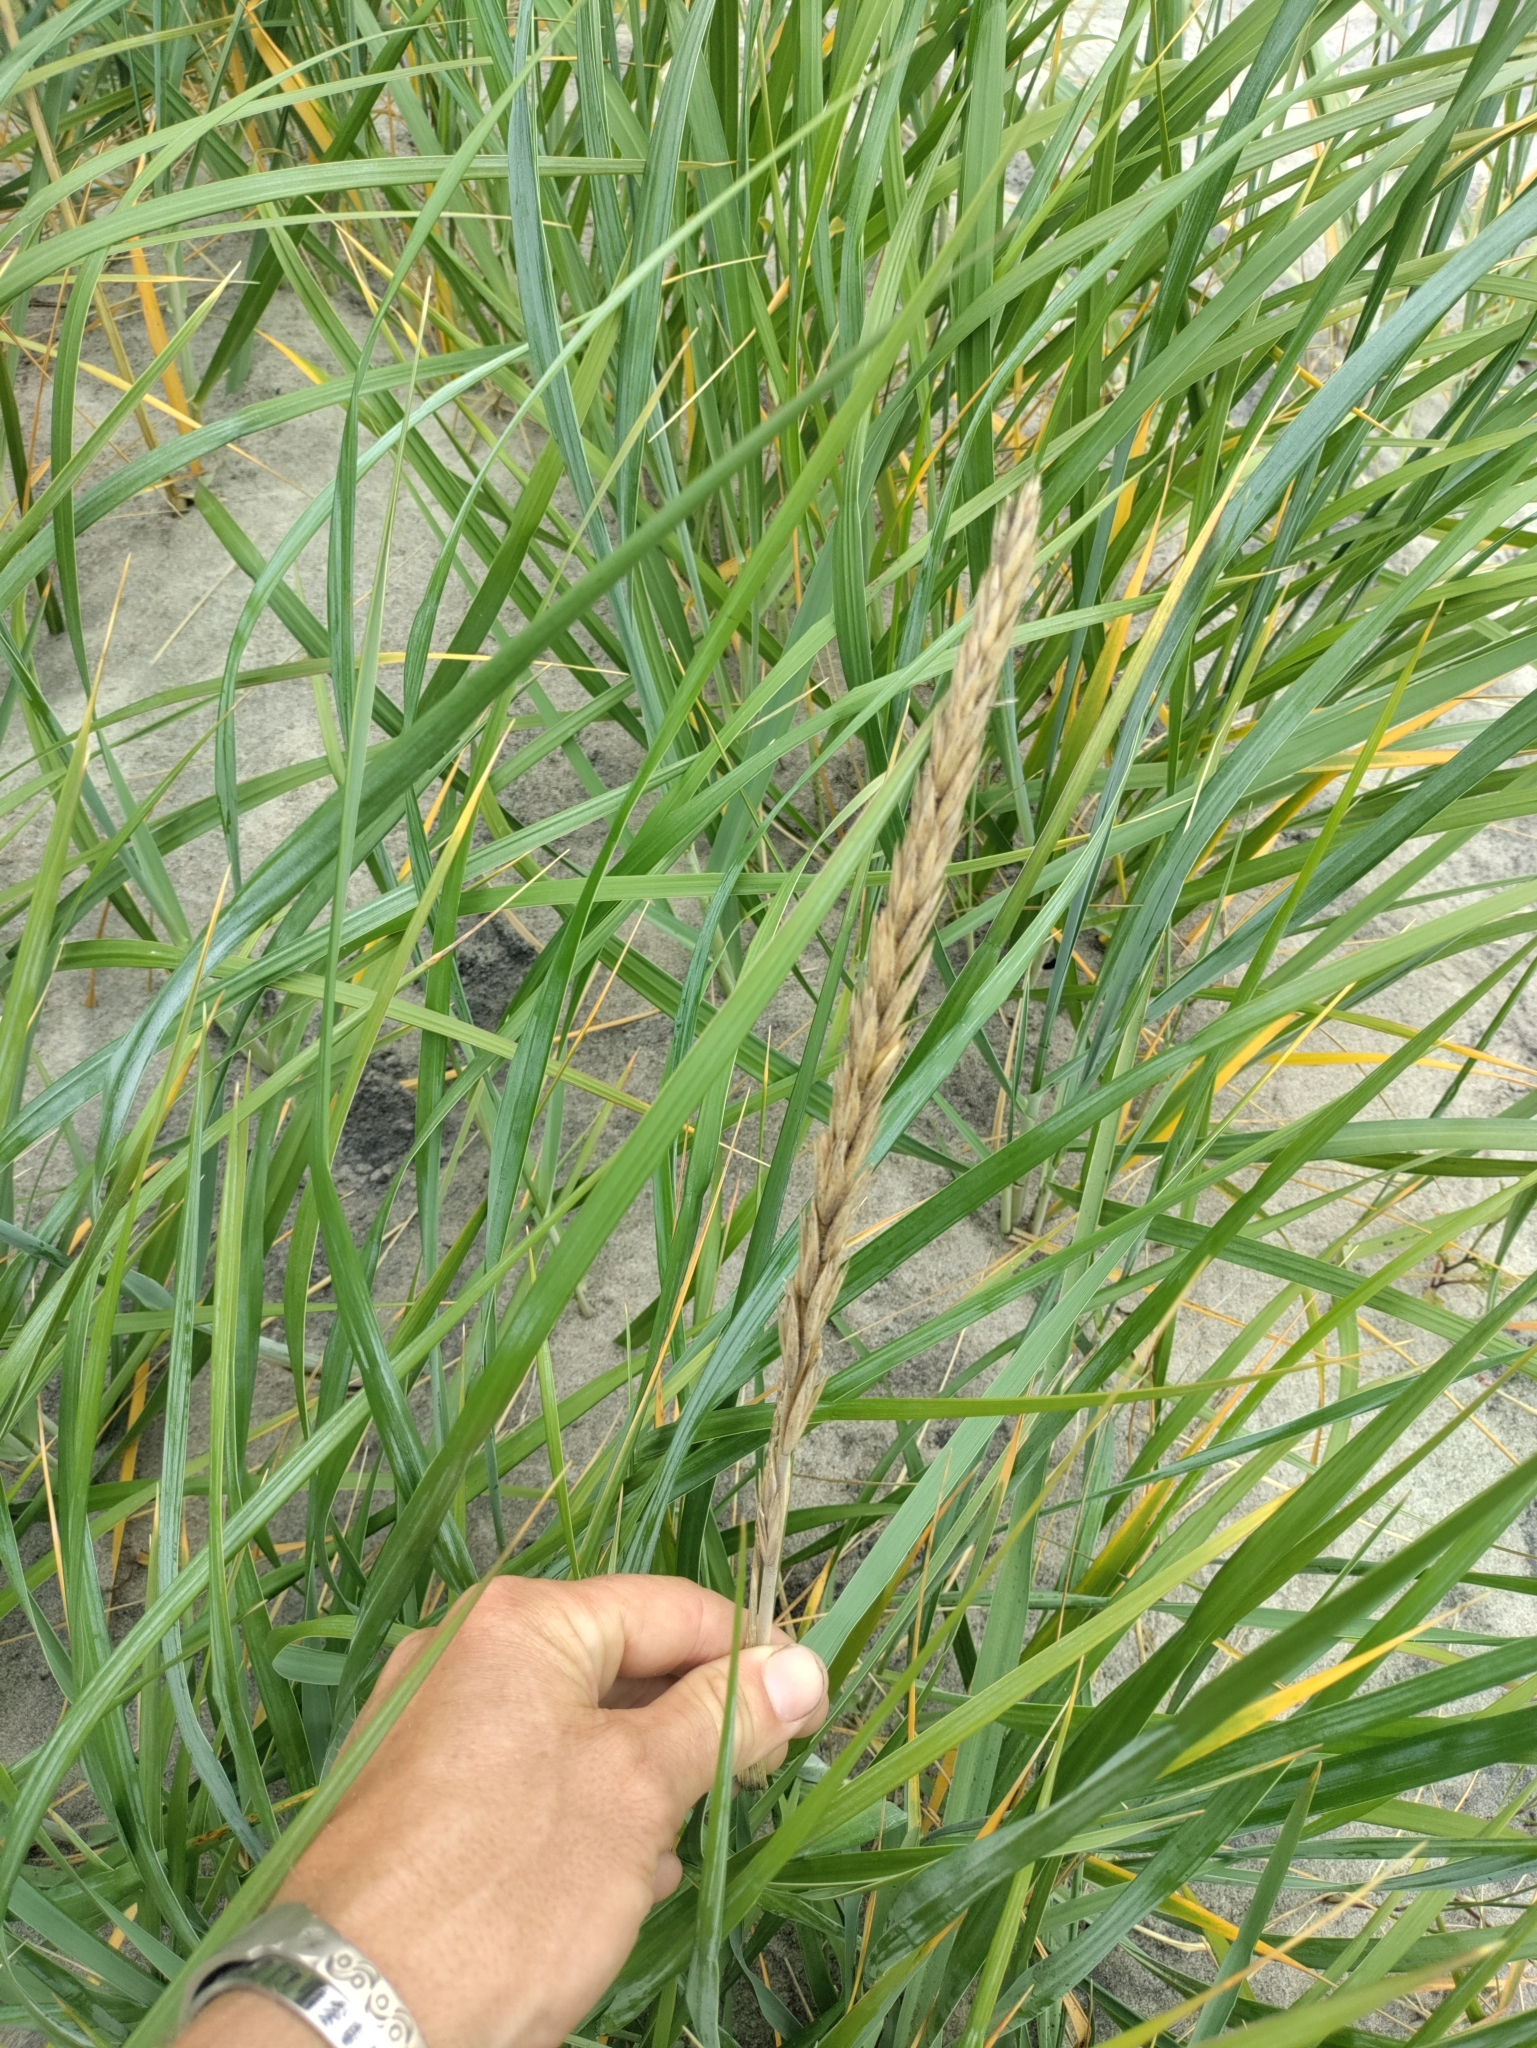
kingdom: Plantae
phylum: Tracheophyta
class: Liliopsida
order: Poales
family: Poaceae
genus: Leymus
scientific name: Leymus mollis
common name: American dune grass
